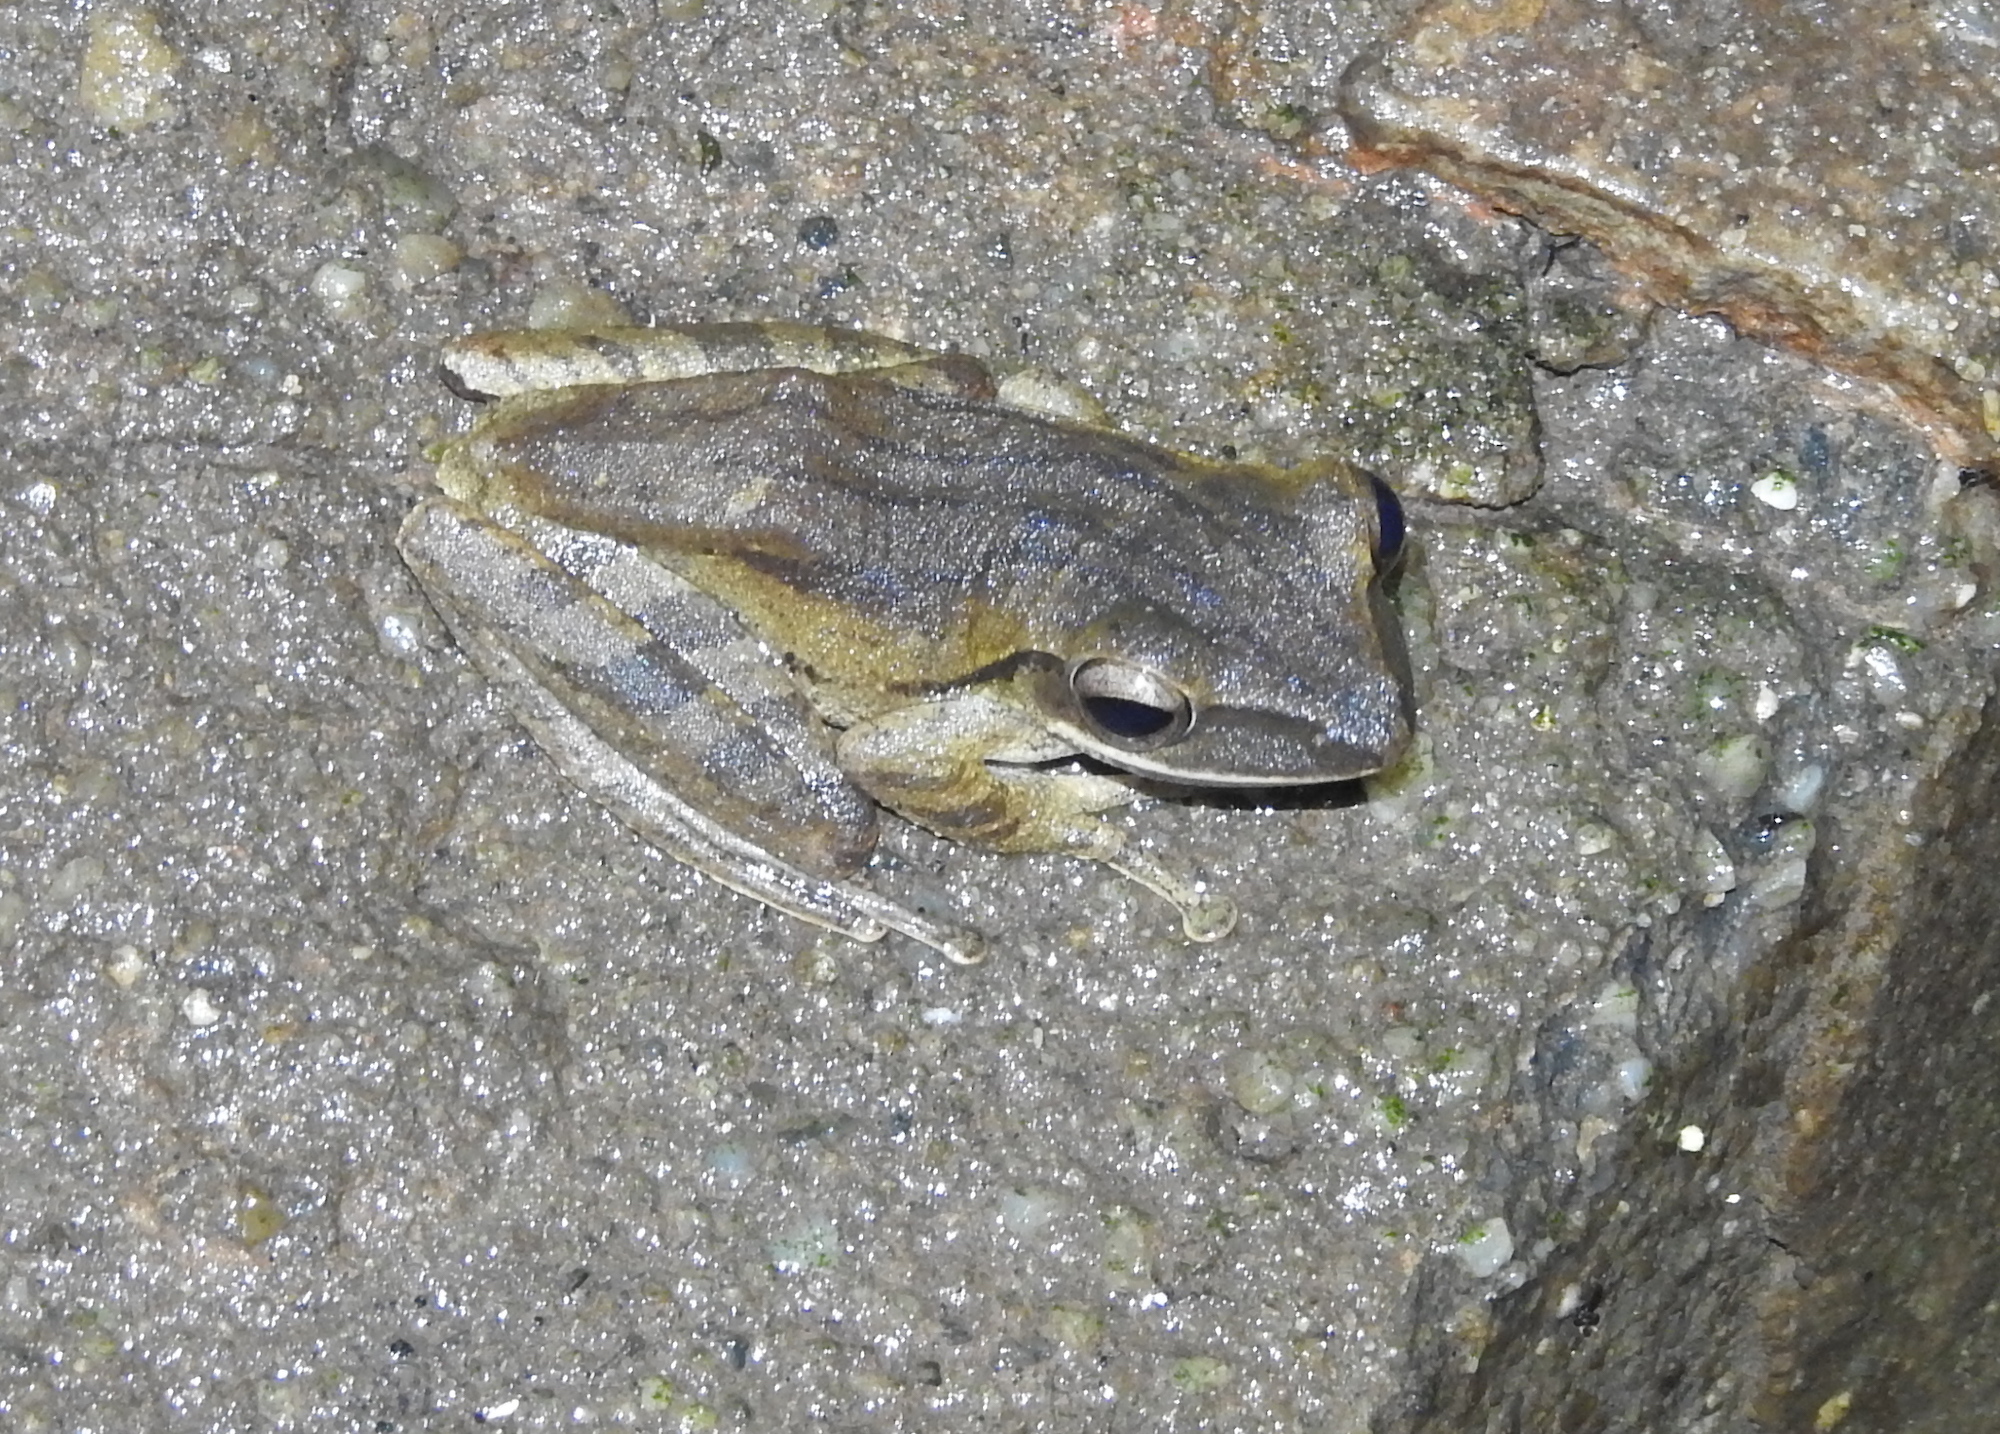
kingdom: Animalia
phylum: Chordata
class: Amphibia
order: Anura
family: Rhacophoridae
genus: Polypedates
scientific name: Polypedates leucomystax
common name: Common tree frog/four-lined tree frog
